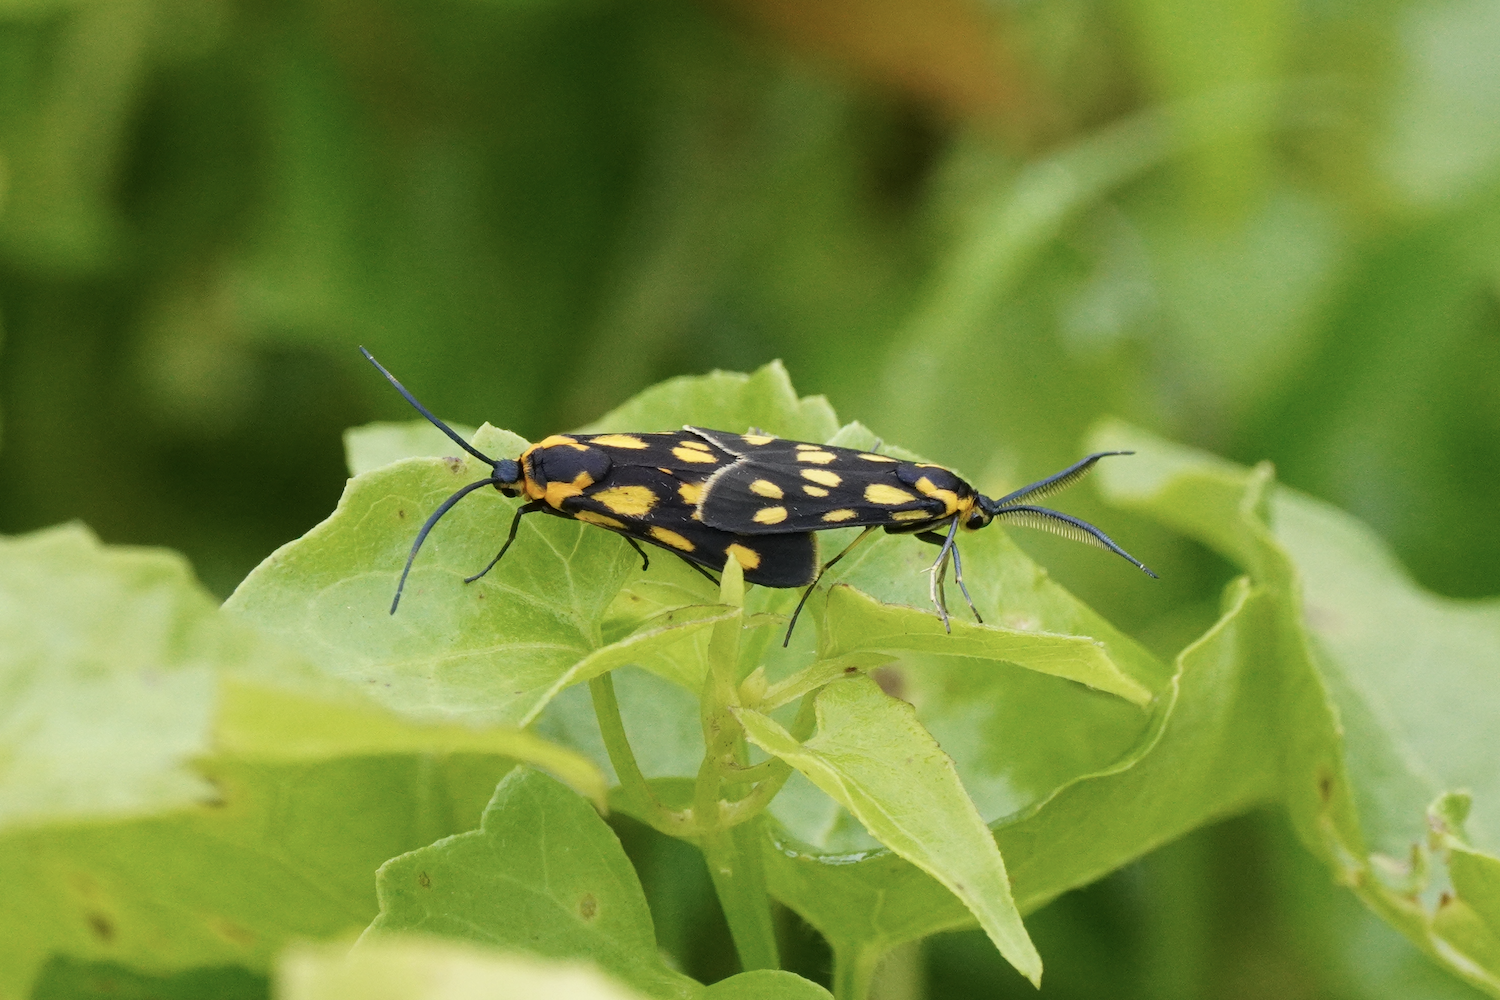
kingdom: Animalia
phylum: Arthropoda
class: Insecta
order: Lepidoptera
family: Zygaenidae
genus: Artona
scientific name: Artona walkeri
